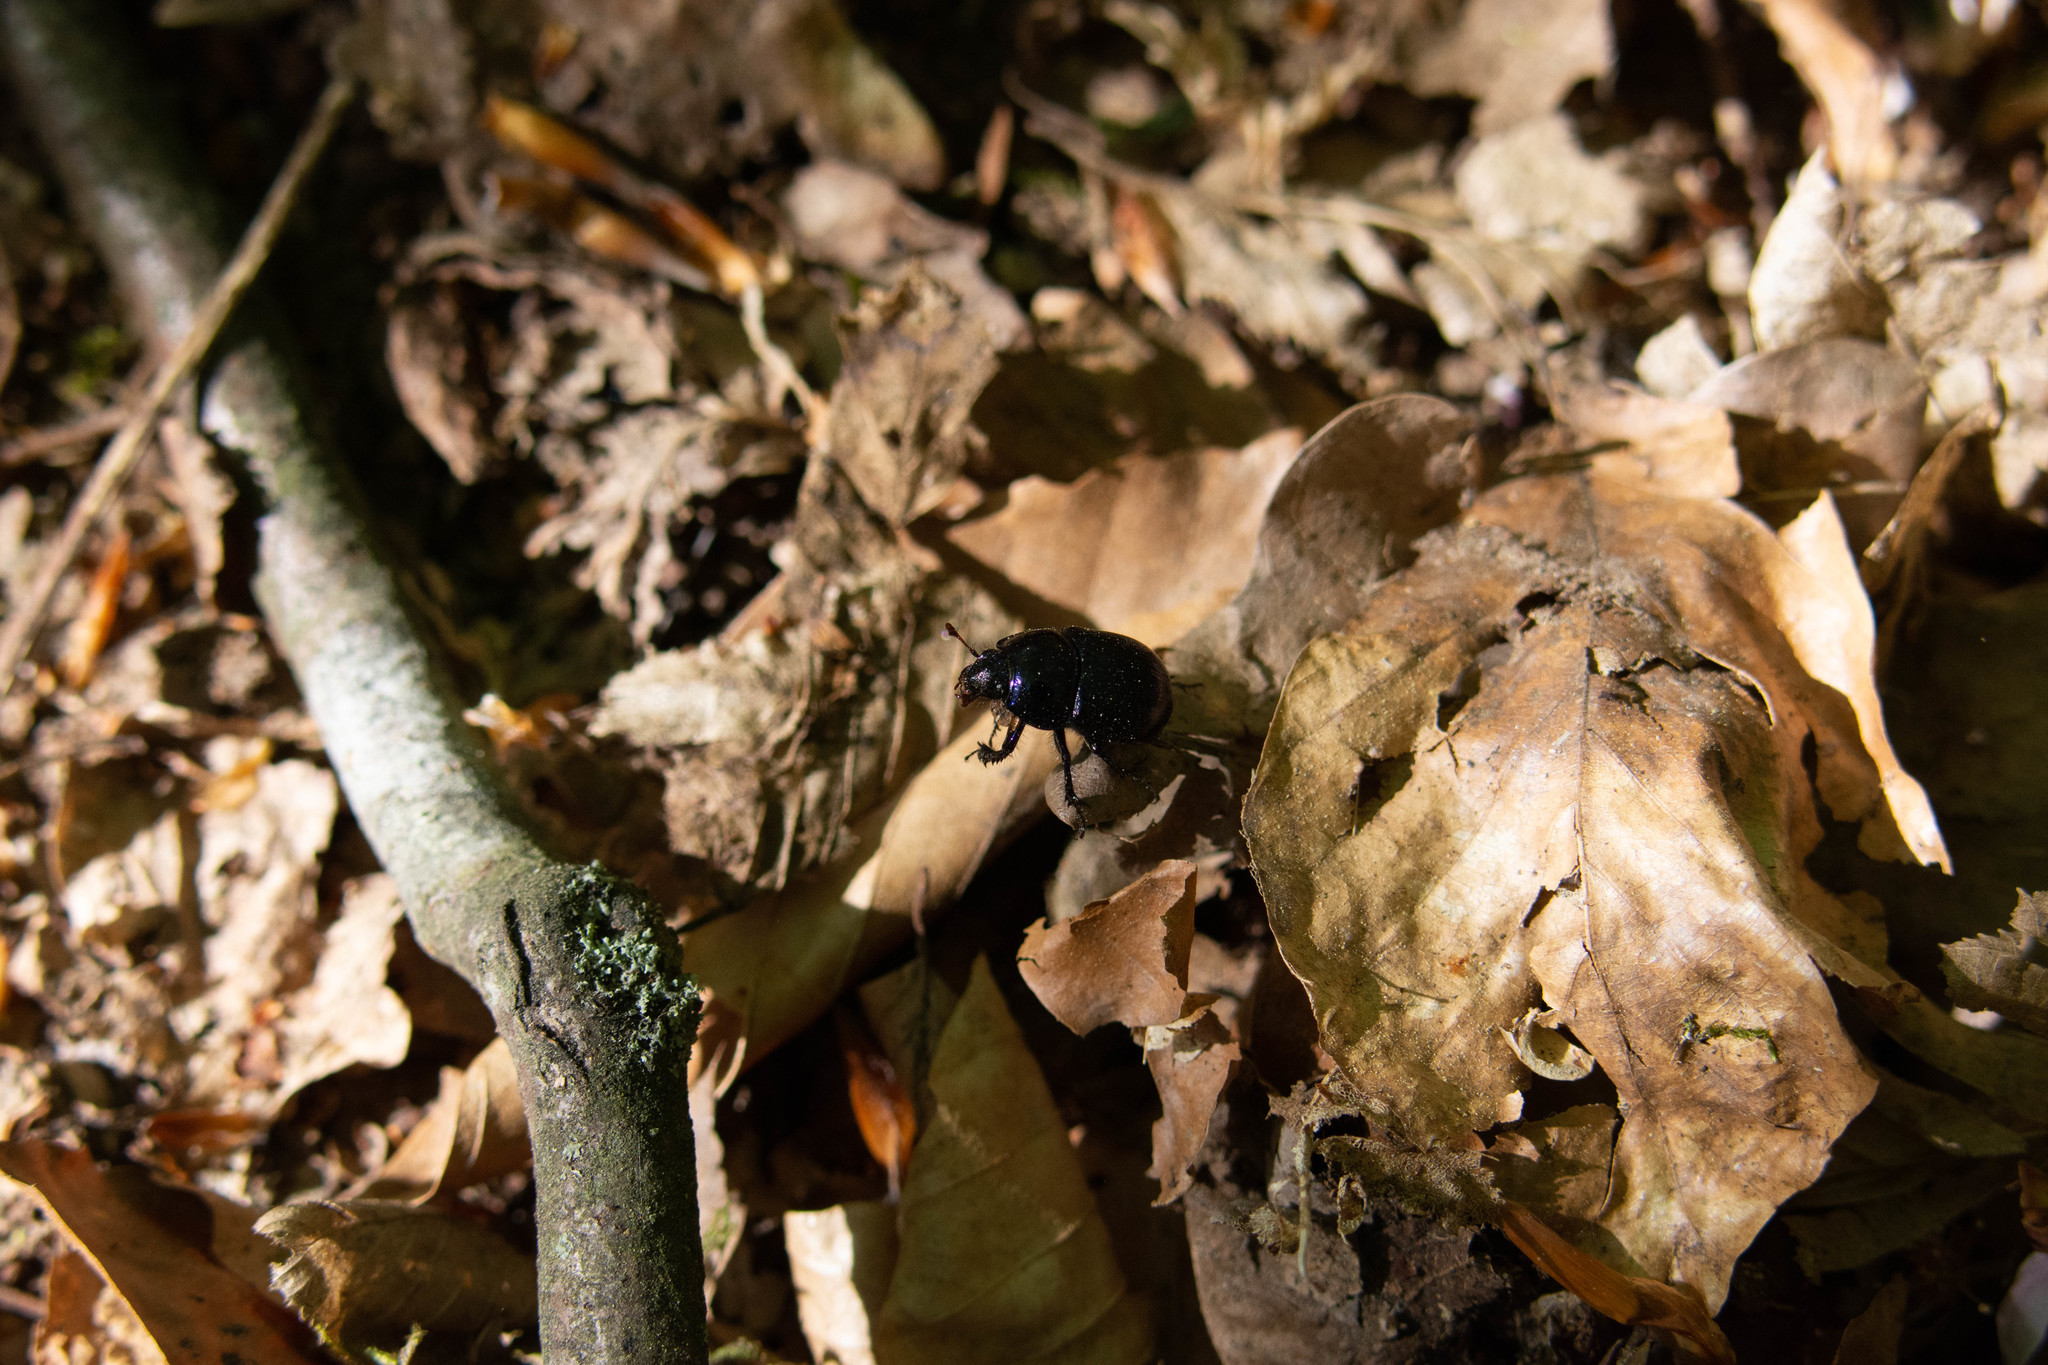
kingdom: Animalia
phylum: Arthropoda
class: Insecta
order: Coleoptera
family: Geotrupidae
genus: Anoplotrupes
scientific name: Anoplotrupes stercorosus
